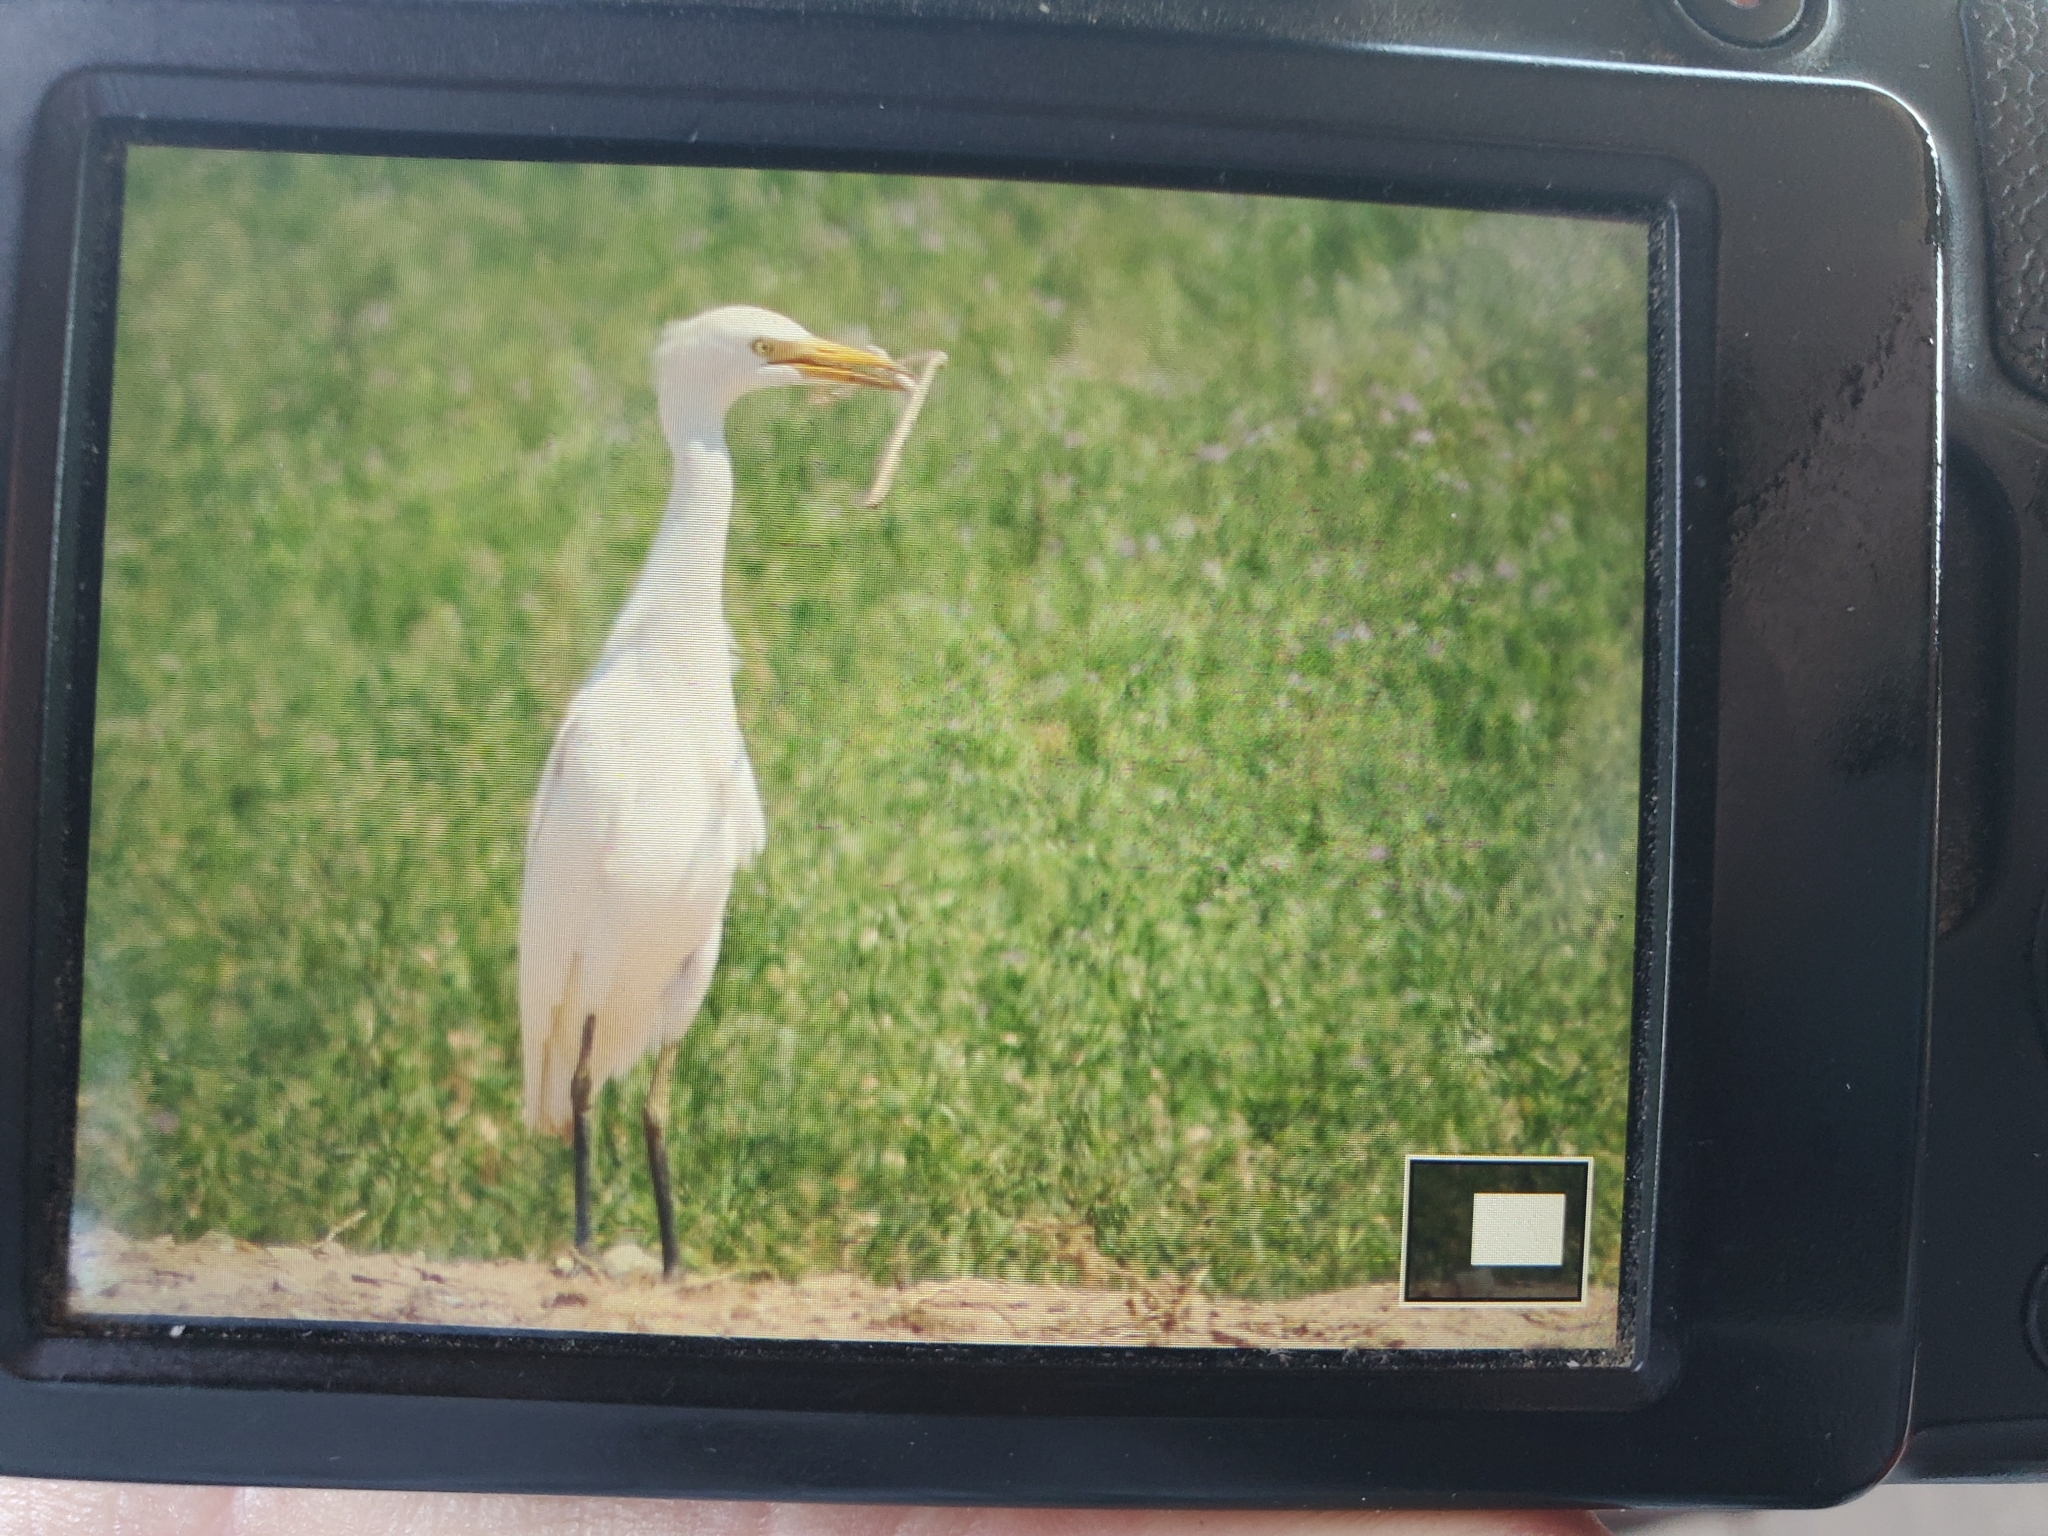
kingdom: Animalia
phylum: Chordata
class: Aves
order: Pelecaniformes
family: Ardeidae
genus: Bubulcus
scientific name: Bubulcus ibis
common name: Cattle egret
